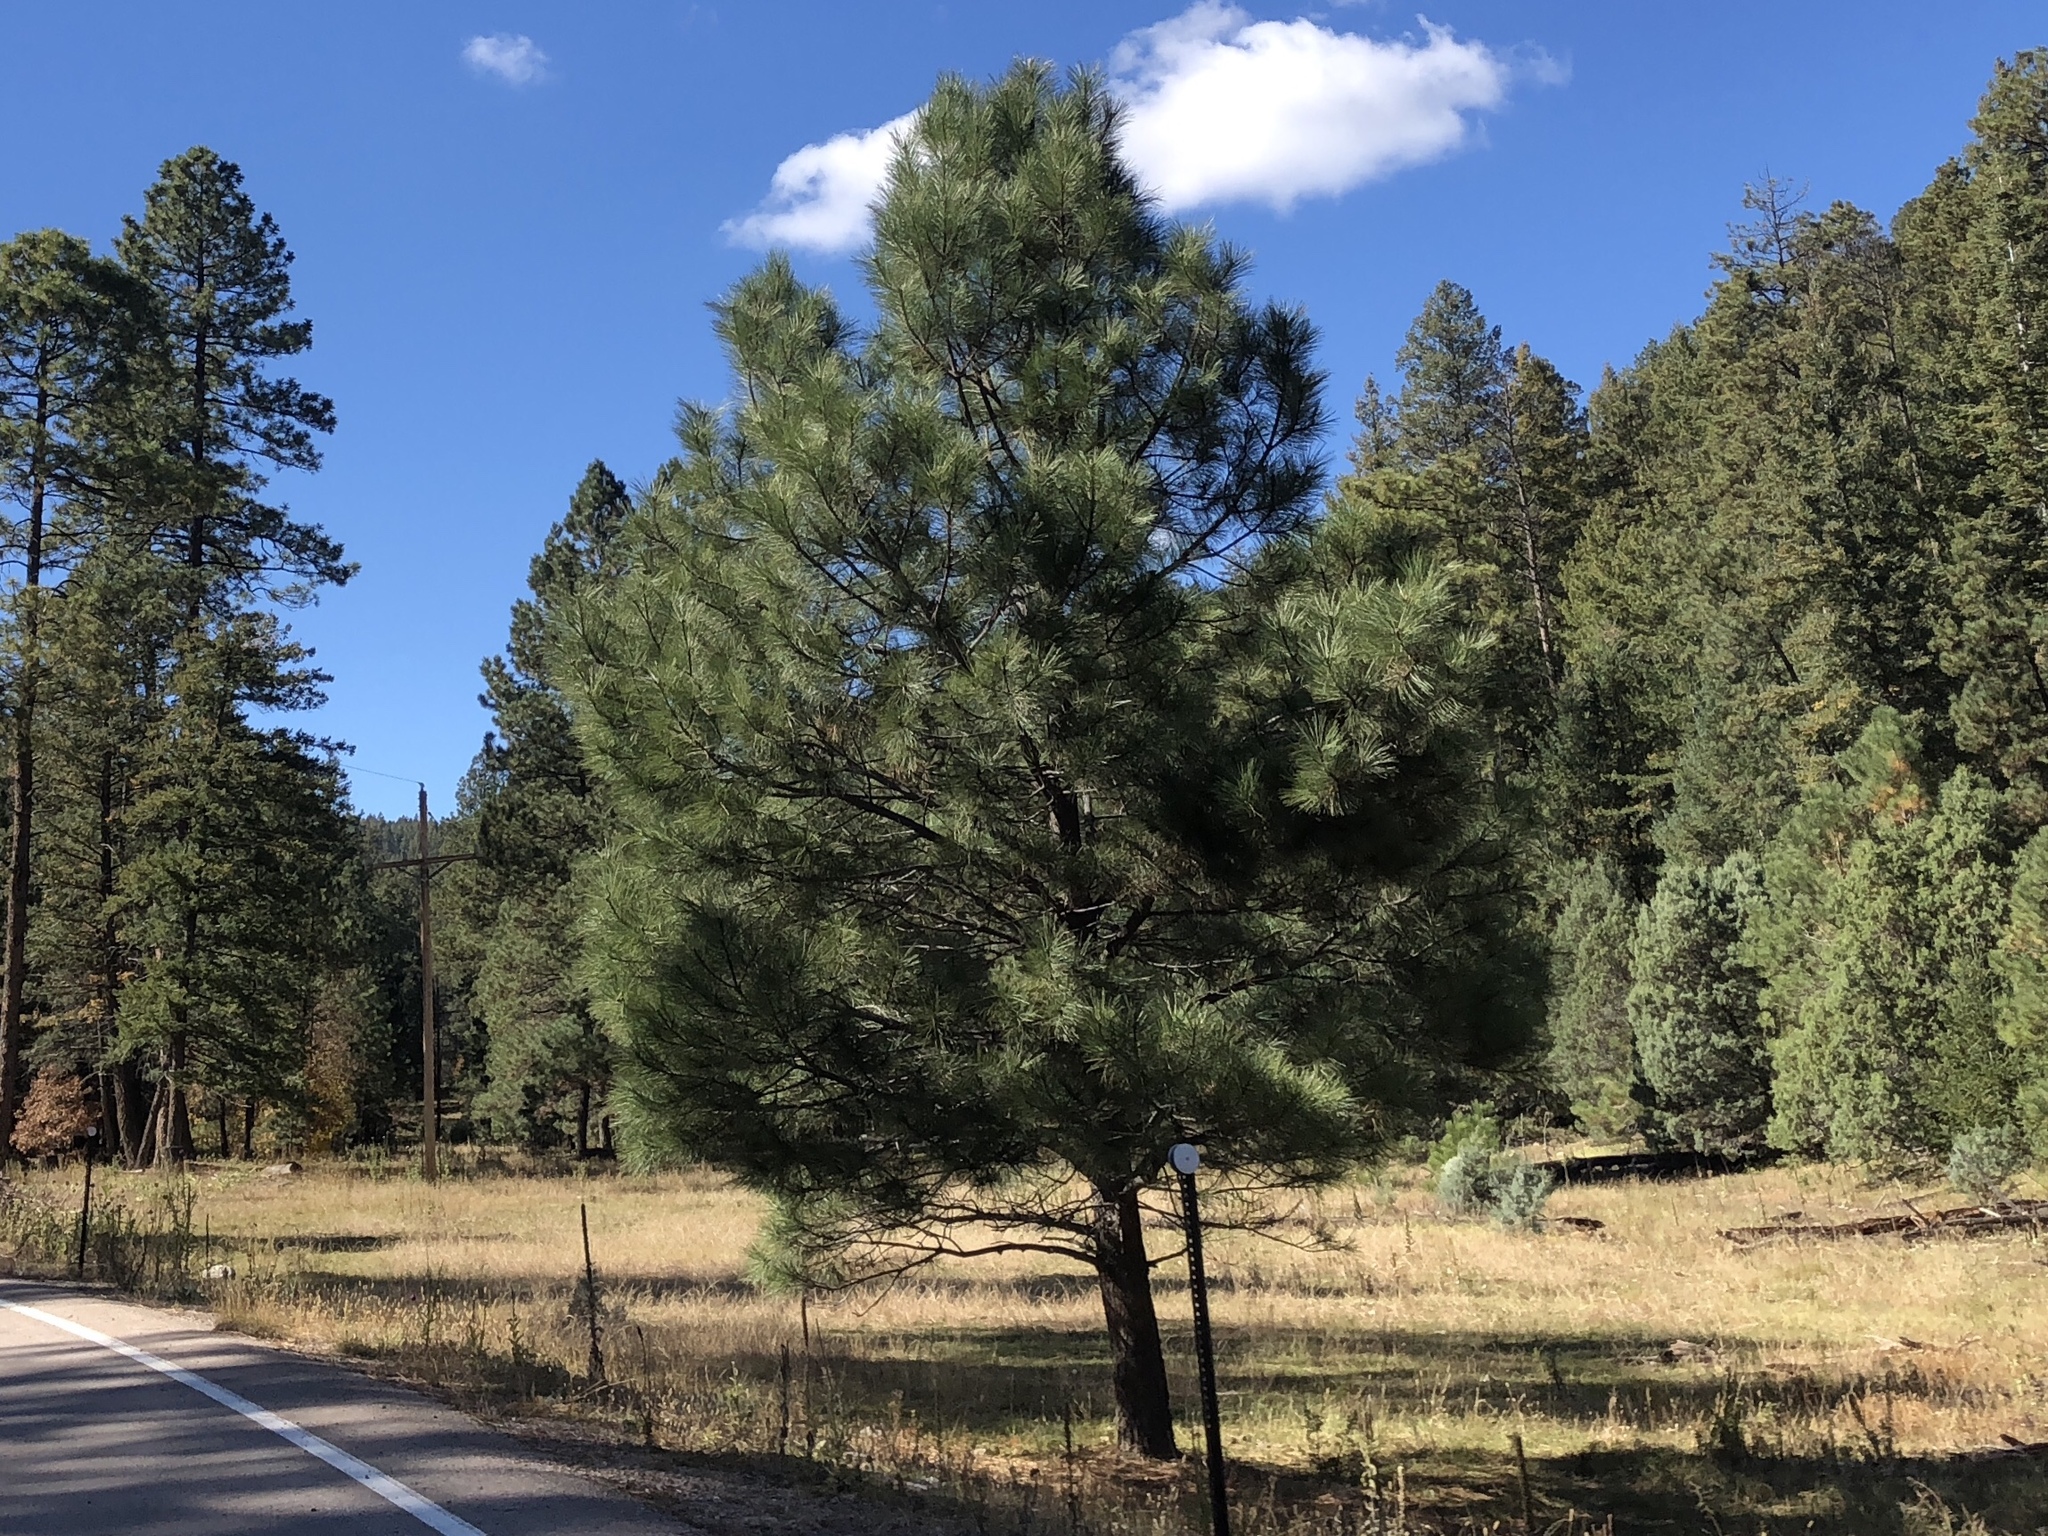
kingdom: Plantae
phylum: Tracheophyta
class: Pinopsida
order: Pinales
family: Pinaceae
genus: Pinus
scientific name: Pinus ponderosa
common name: Western yellow-pine
